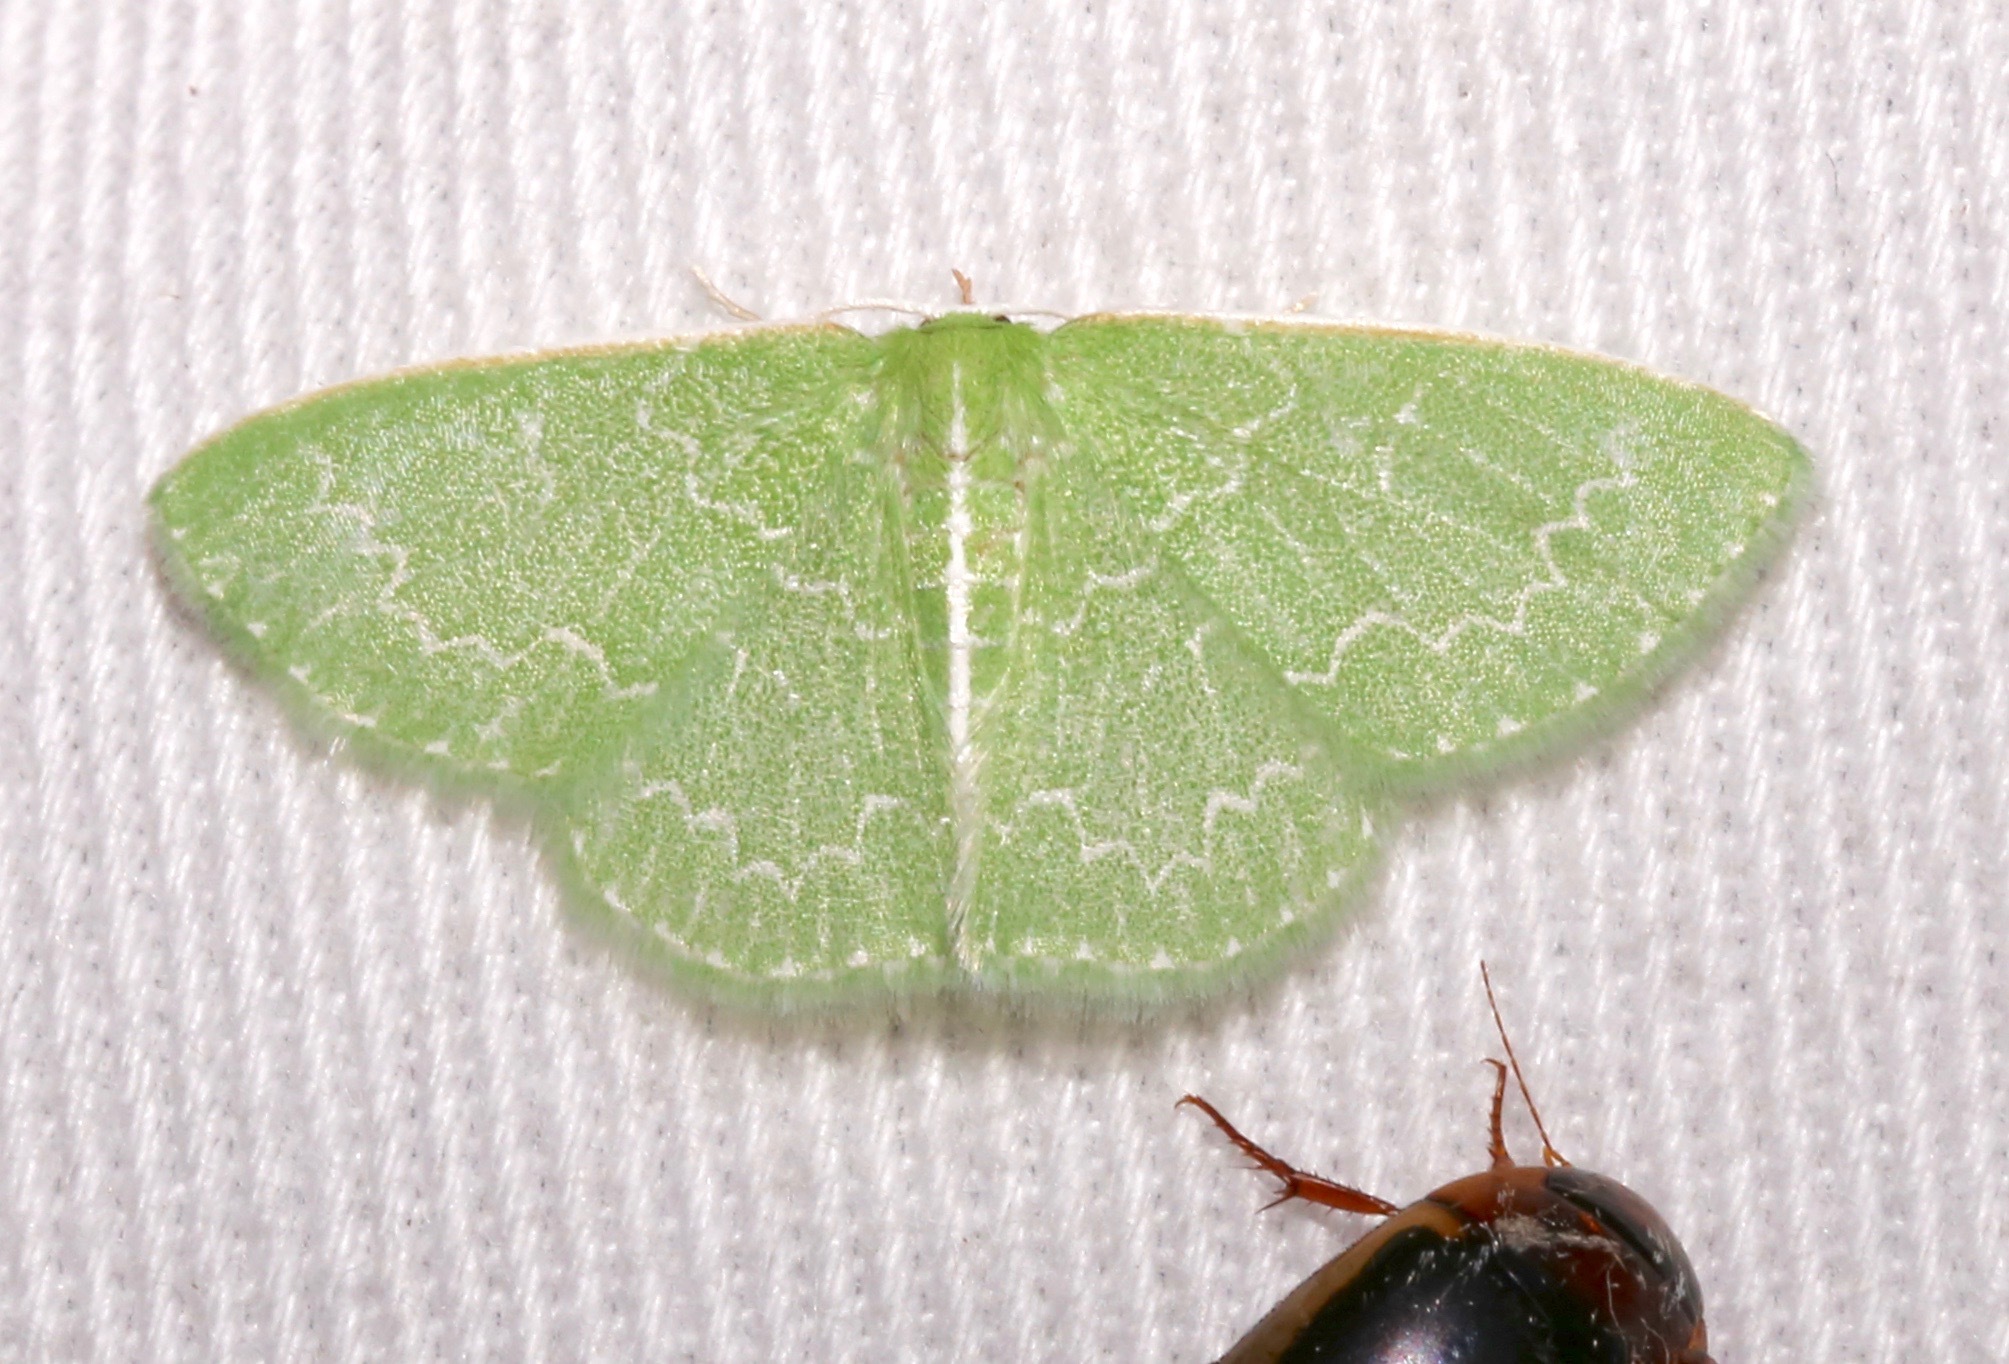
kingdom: Animalia
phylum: Arthropoda
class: Insecta
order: Lepidoptera
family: Geometridae
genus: Synchlora
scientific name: Synchlora frondaria
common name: Southern emerald
